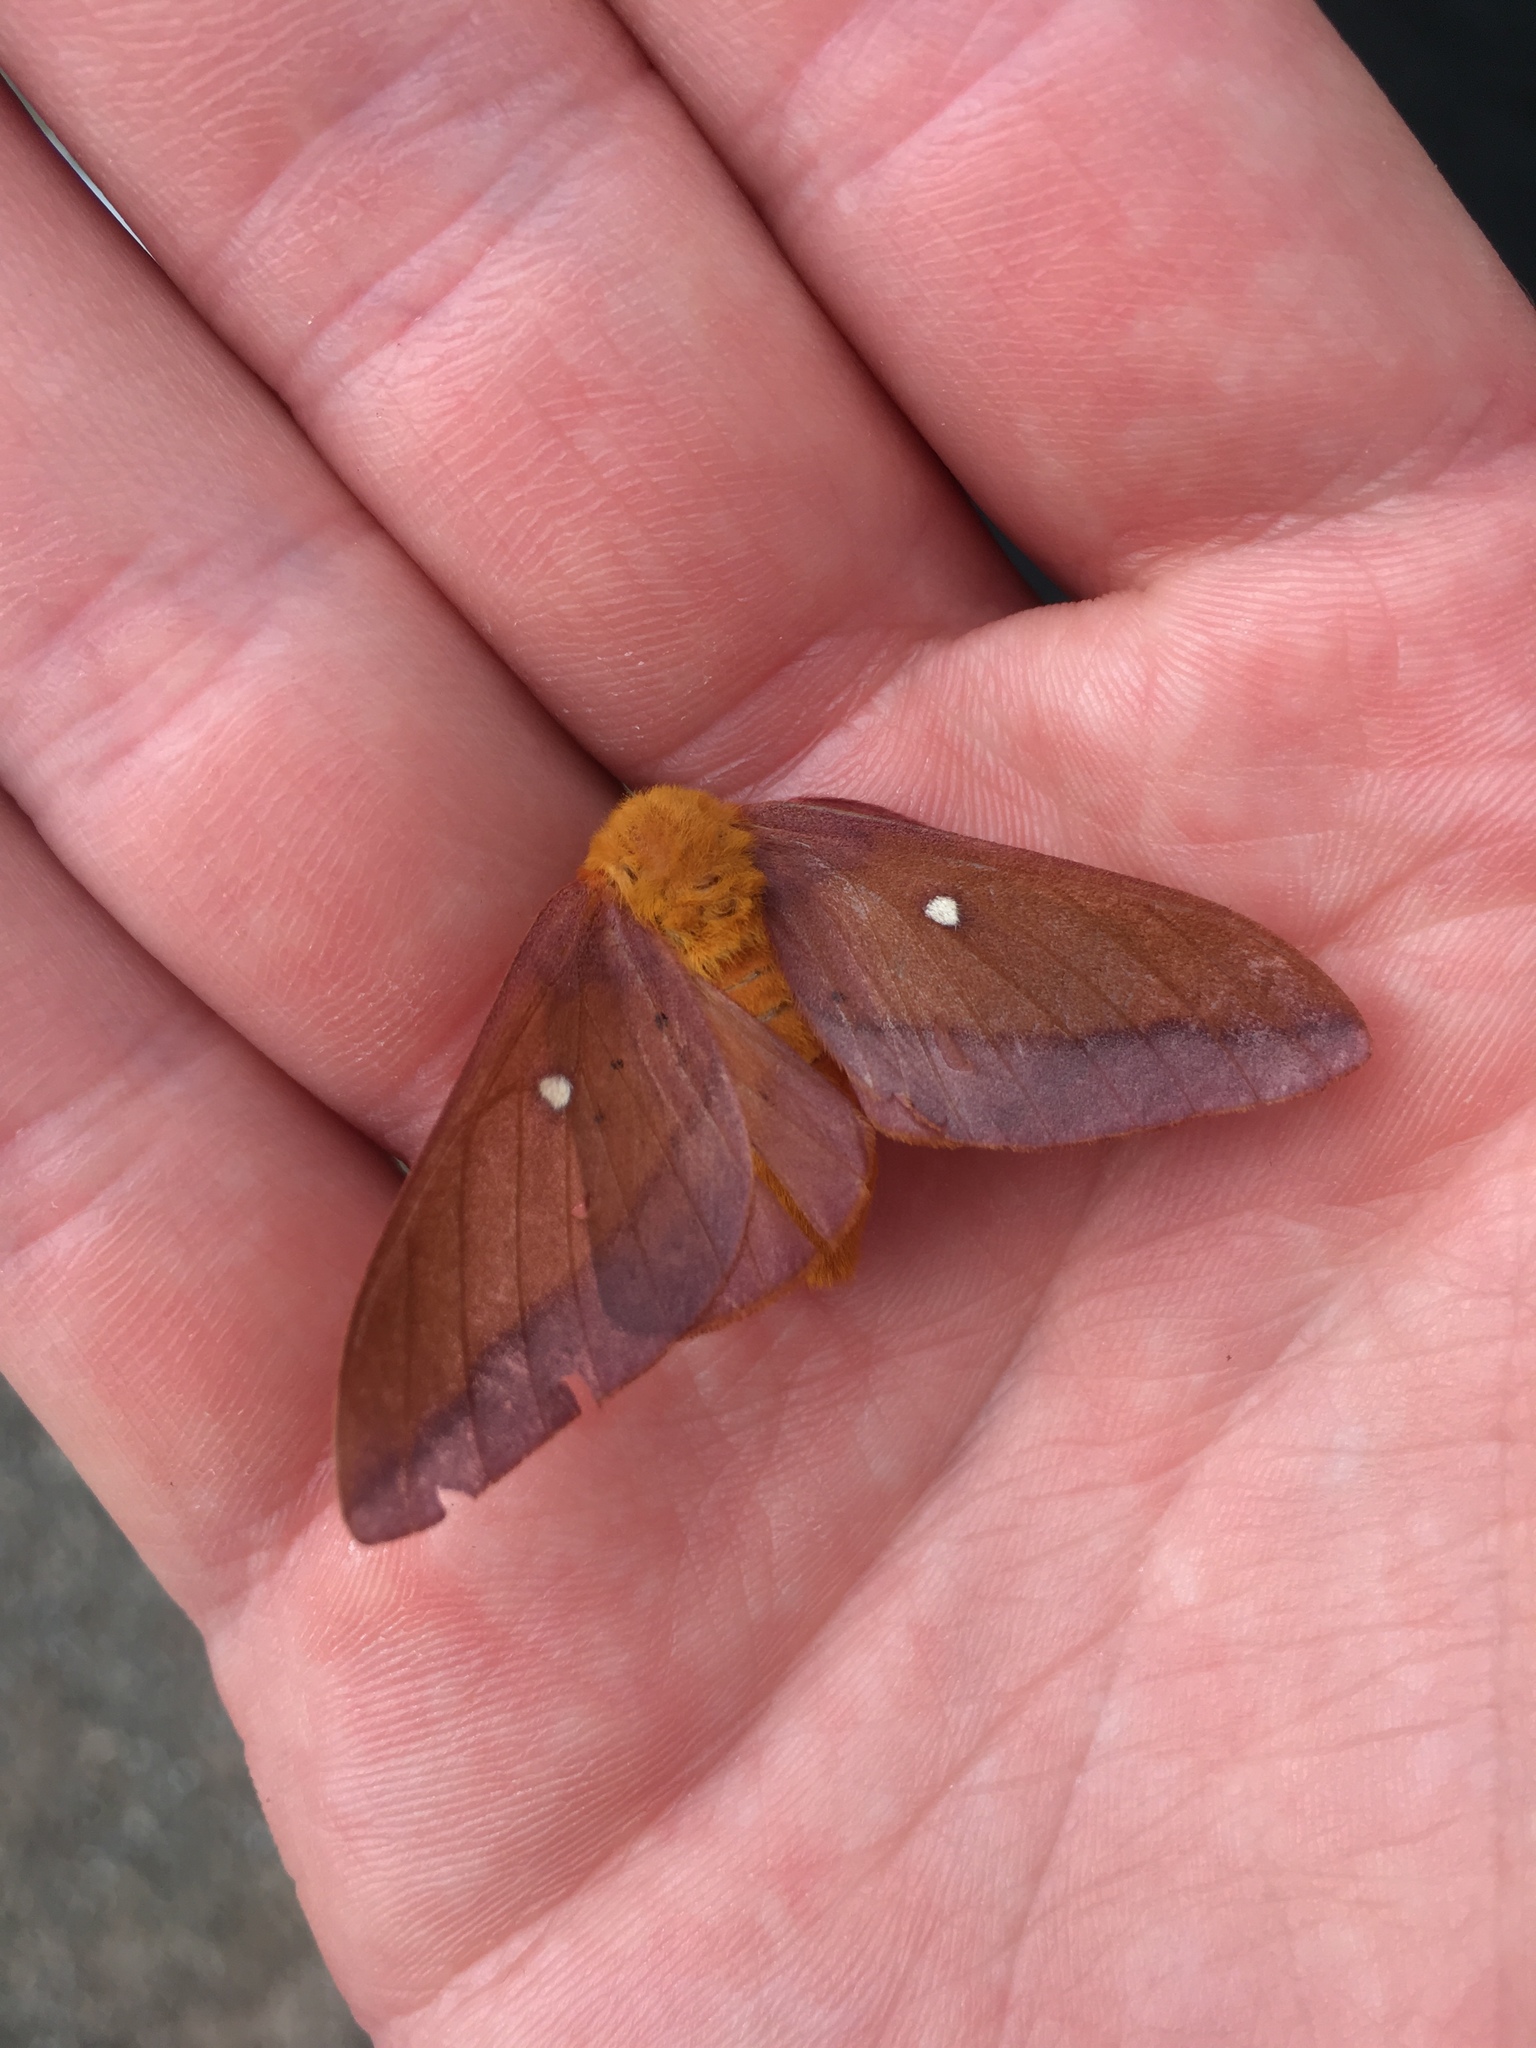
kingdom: Animalia
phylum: Arthropoda
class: Insecta
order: Lepidoptera
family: Saturniidae
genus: Anisota
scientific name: Anisota virginiensis
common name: Pink striped oakworm moth
